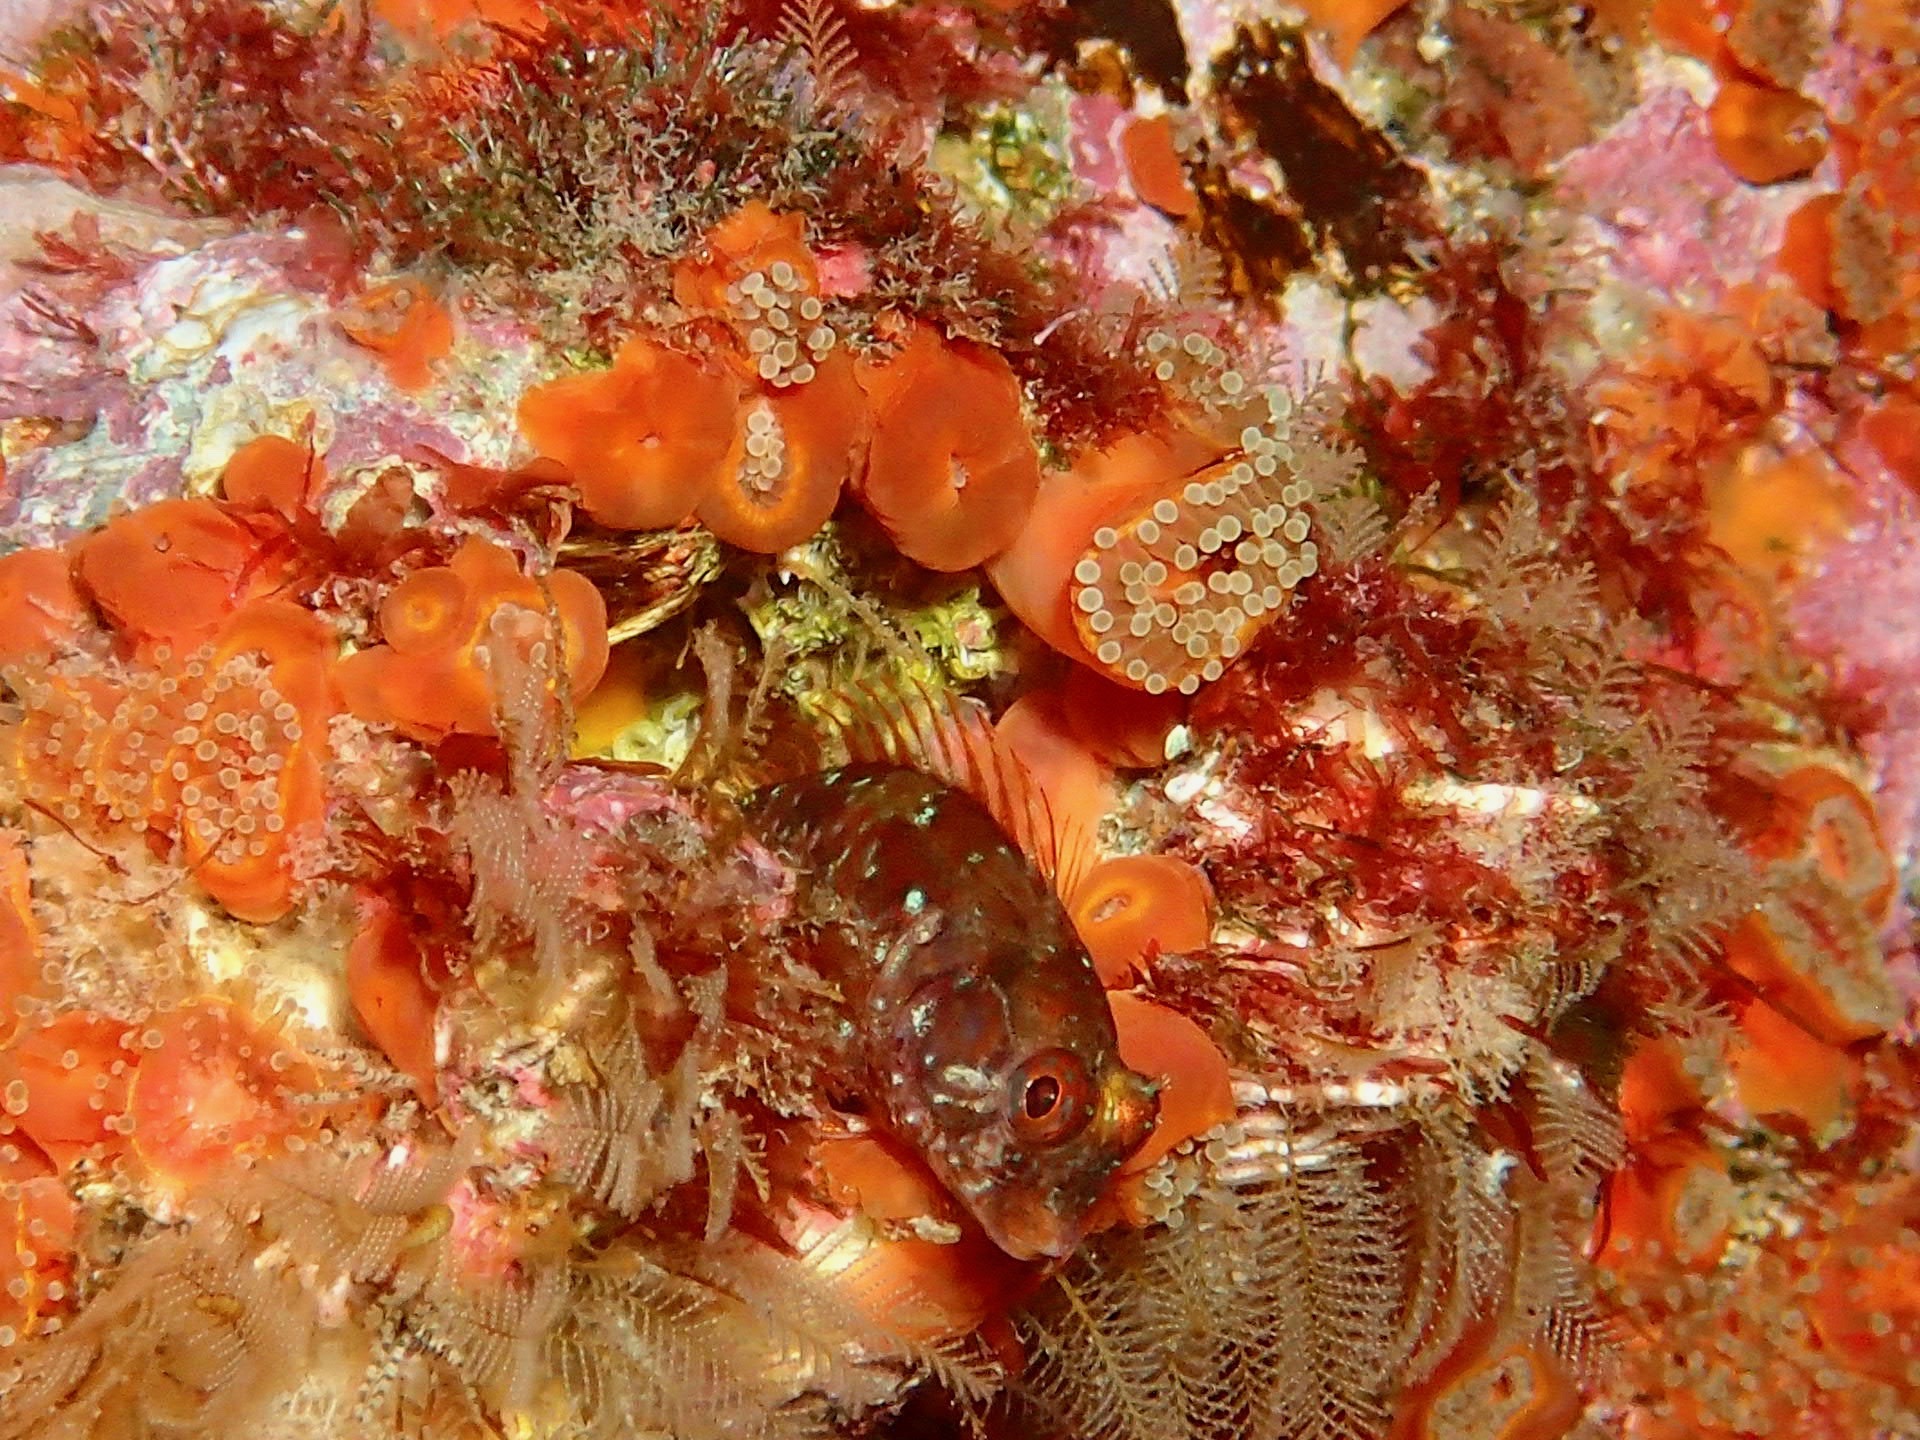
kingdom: Animalia
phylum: Chordata
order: Perciformes
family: Blenniidae
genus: Parablennius
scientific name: Parablennius incognitus
